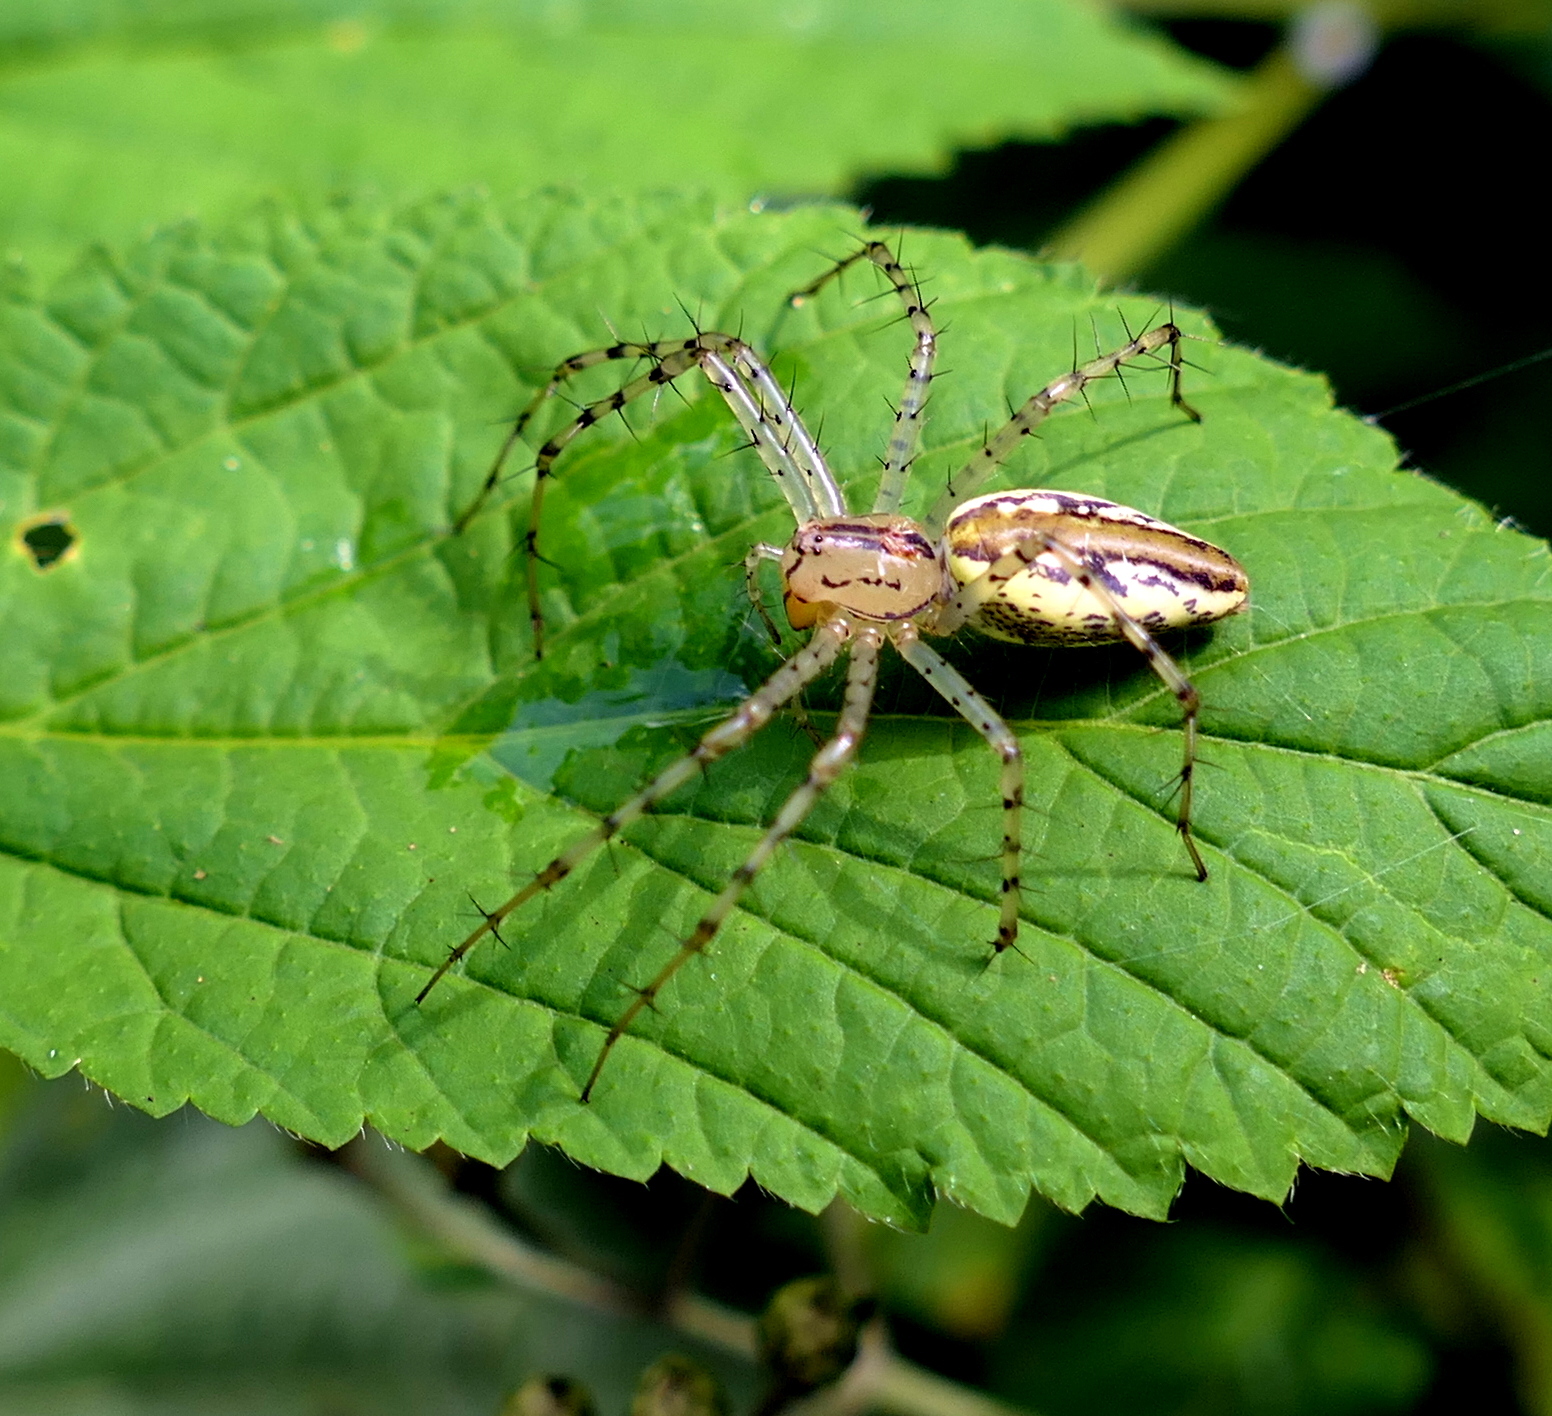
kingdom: Animalia
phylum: Arthropoda
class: Arachnida
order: Araneae
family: Oxyopidae
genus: Peucetia
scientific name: Peucetia rubrolineata
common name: Lynx spiders
